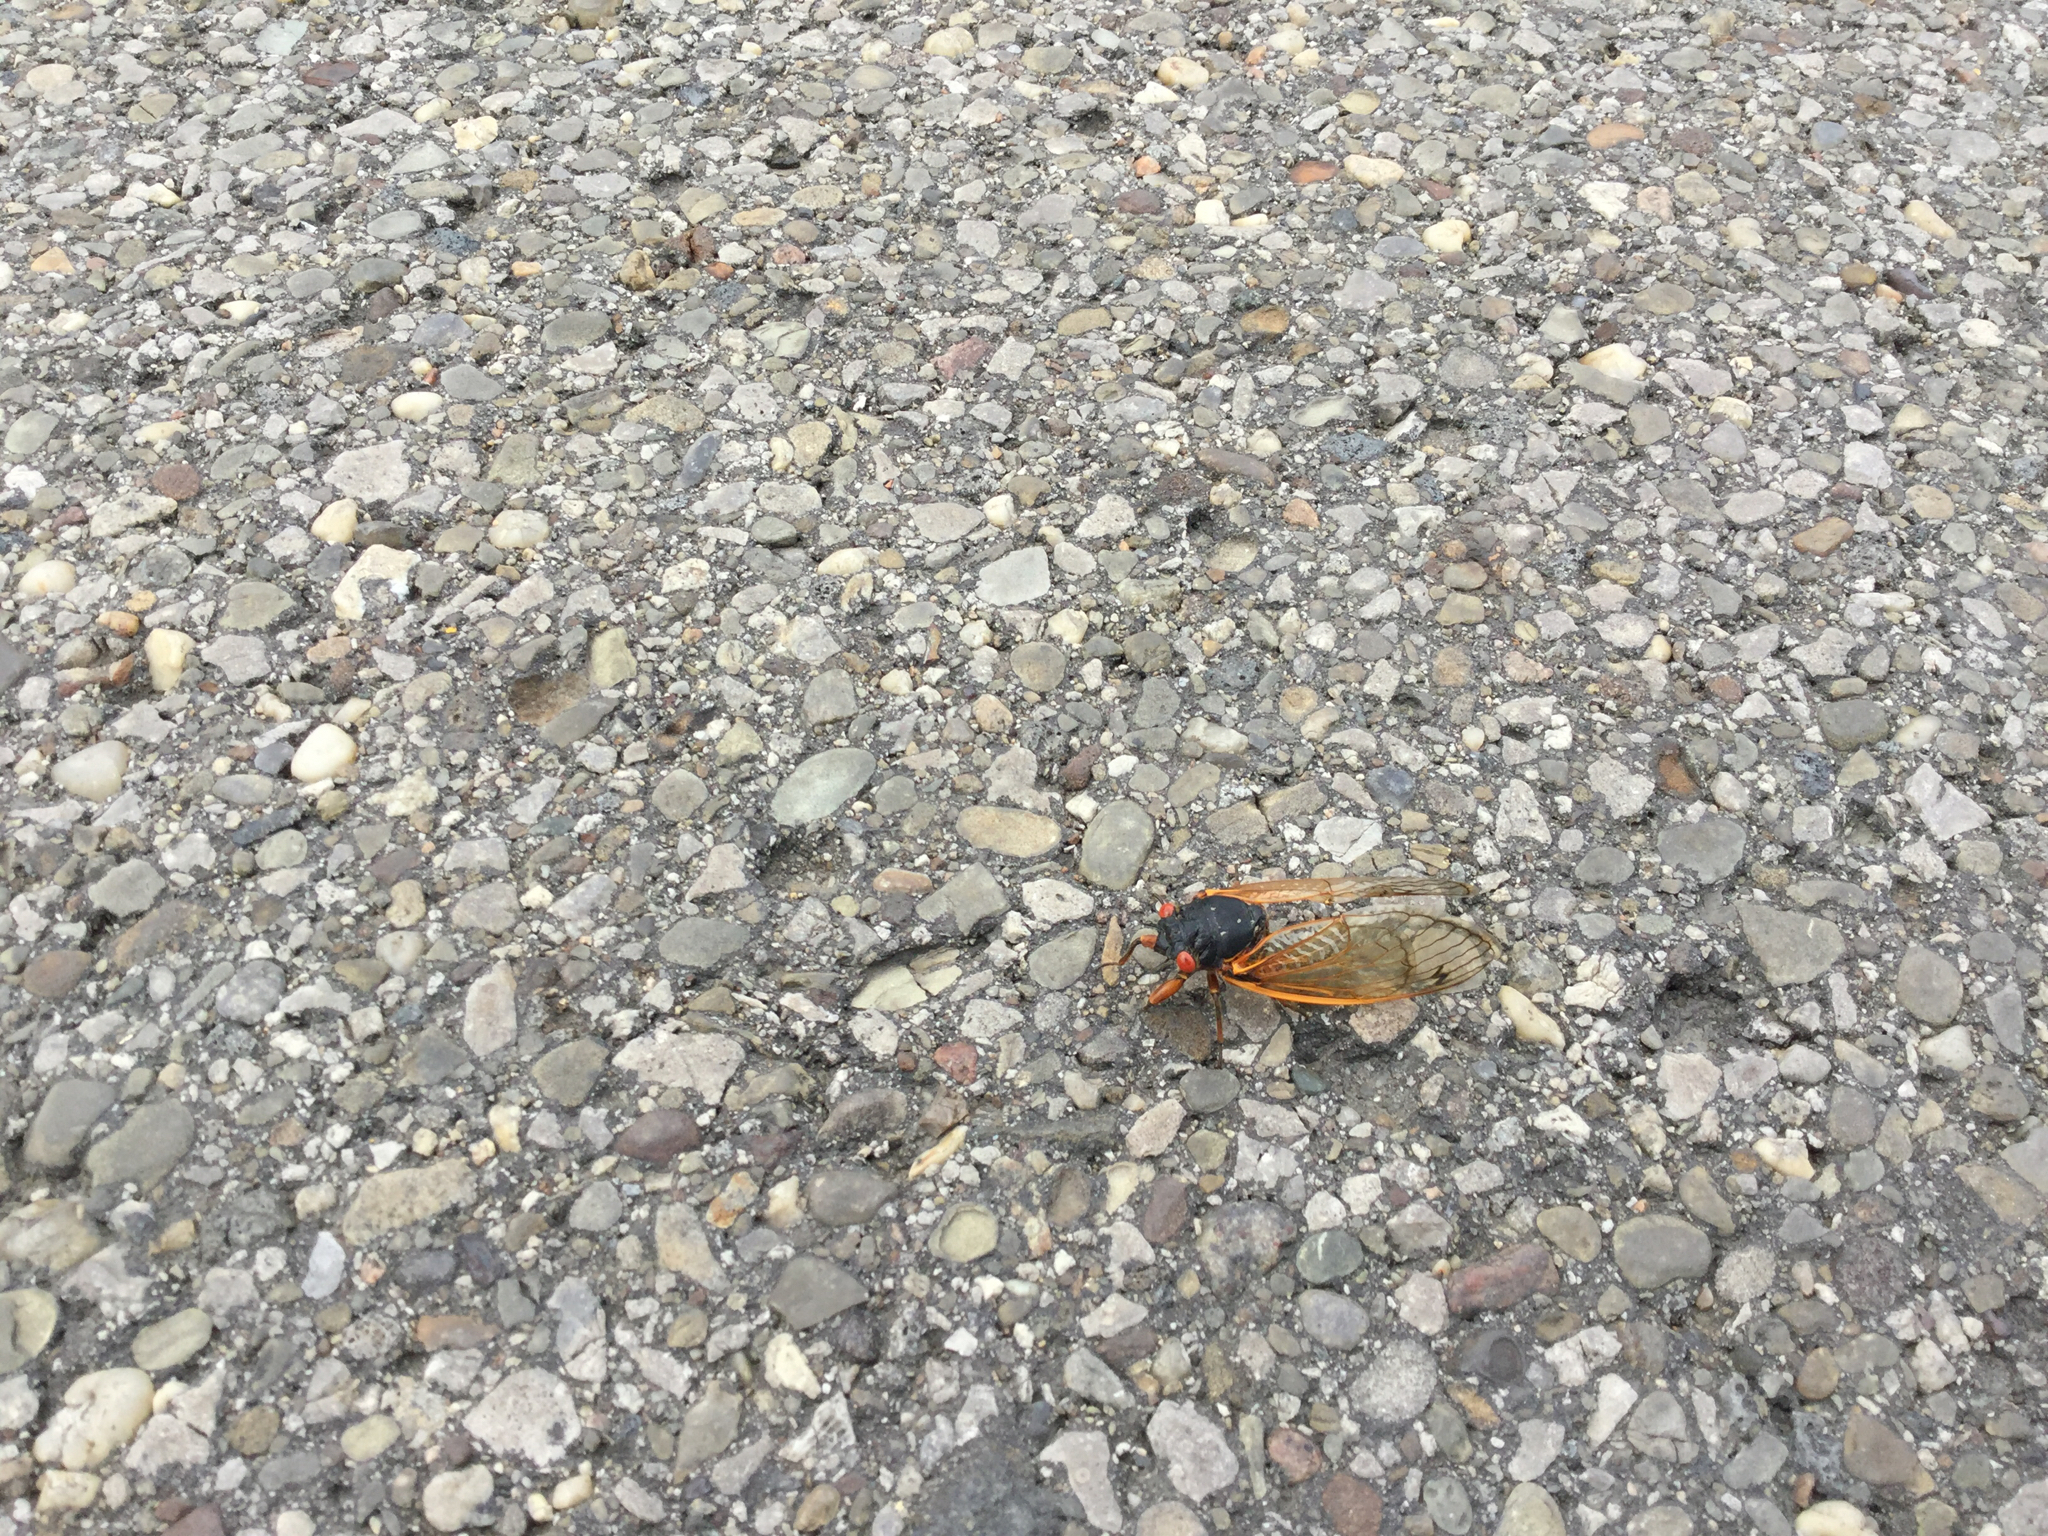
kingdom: Animalia
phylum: Arthropoda
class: Insecta
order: Hemiptera
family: Cicadidae
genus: Magicicada
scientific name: Magicicada
